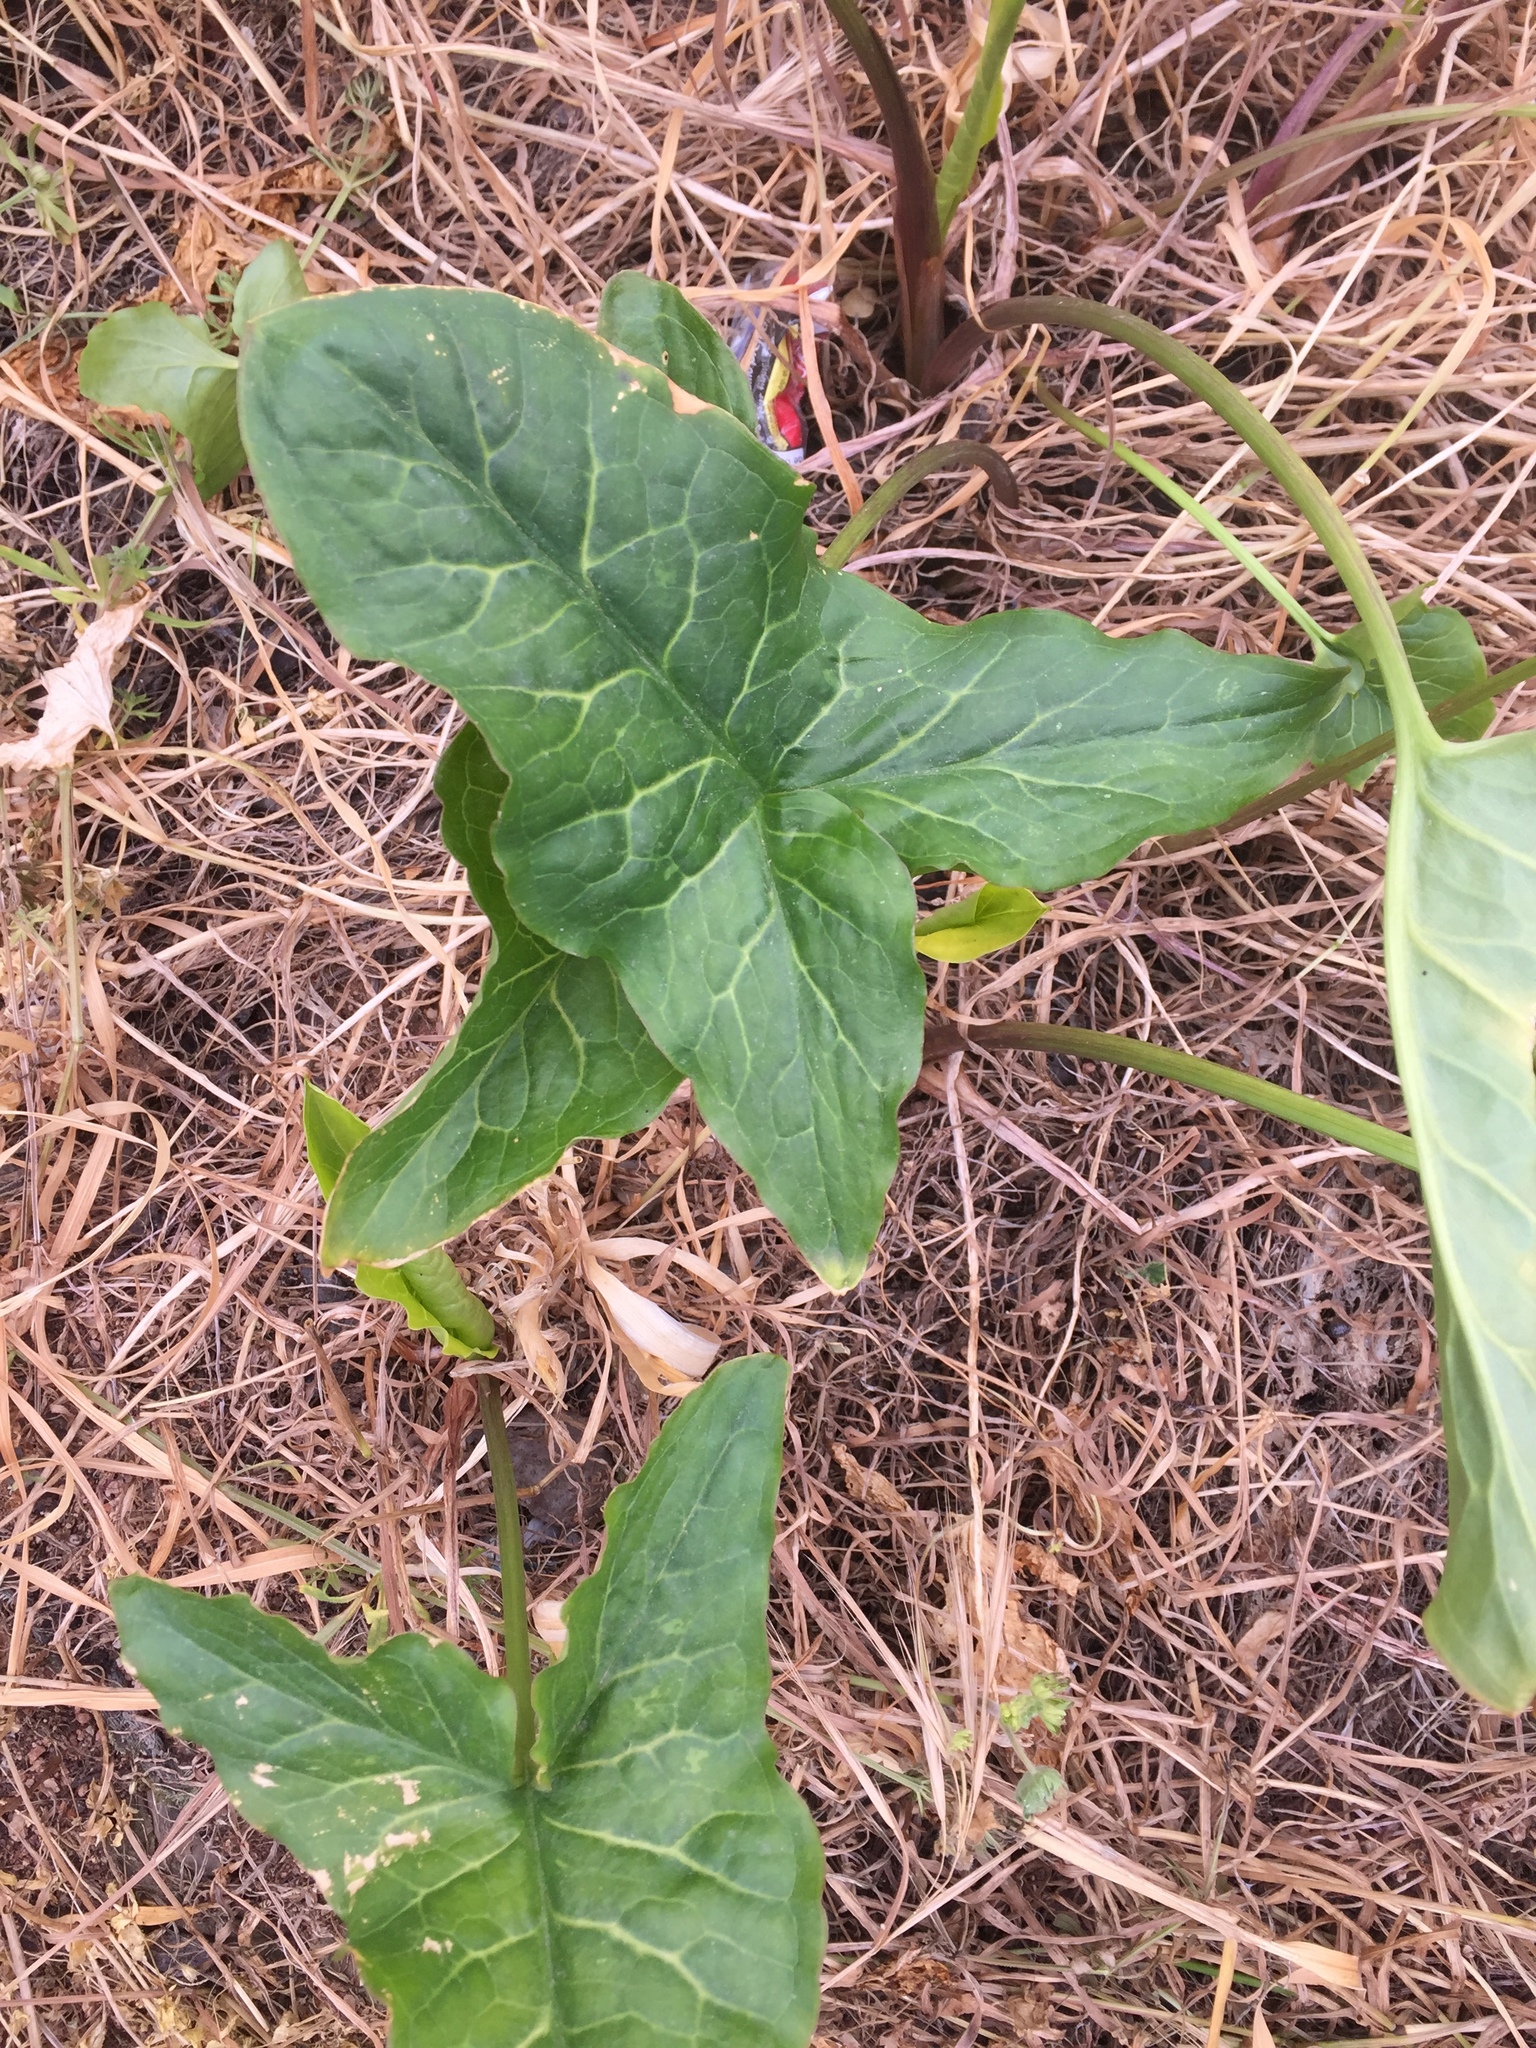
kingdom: Plantae
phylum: Tracheophyta
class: Liliopsida
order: Alismatales
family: Araceae
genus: Arum
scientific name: Arum italicum
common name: Italian lords-and-ladies
